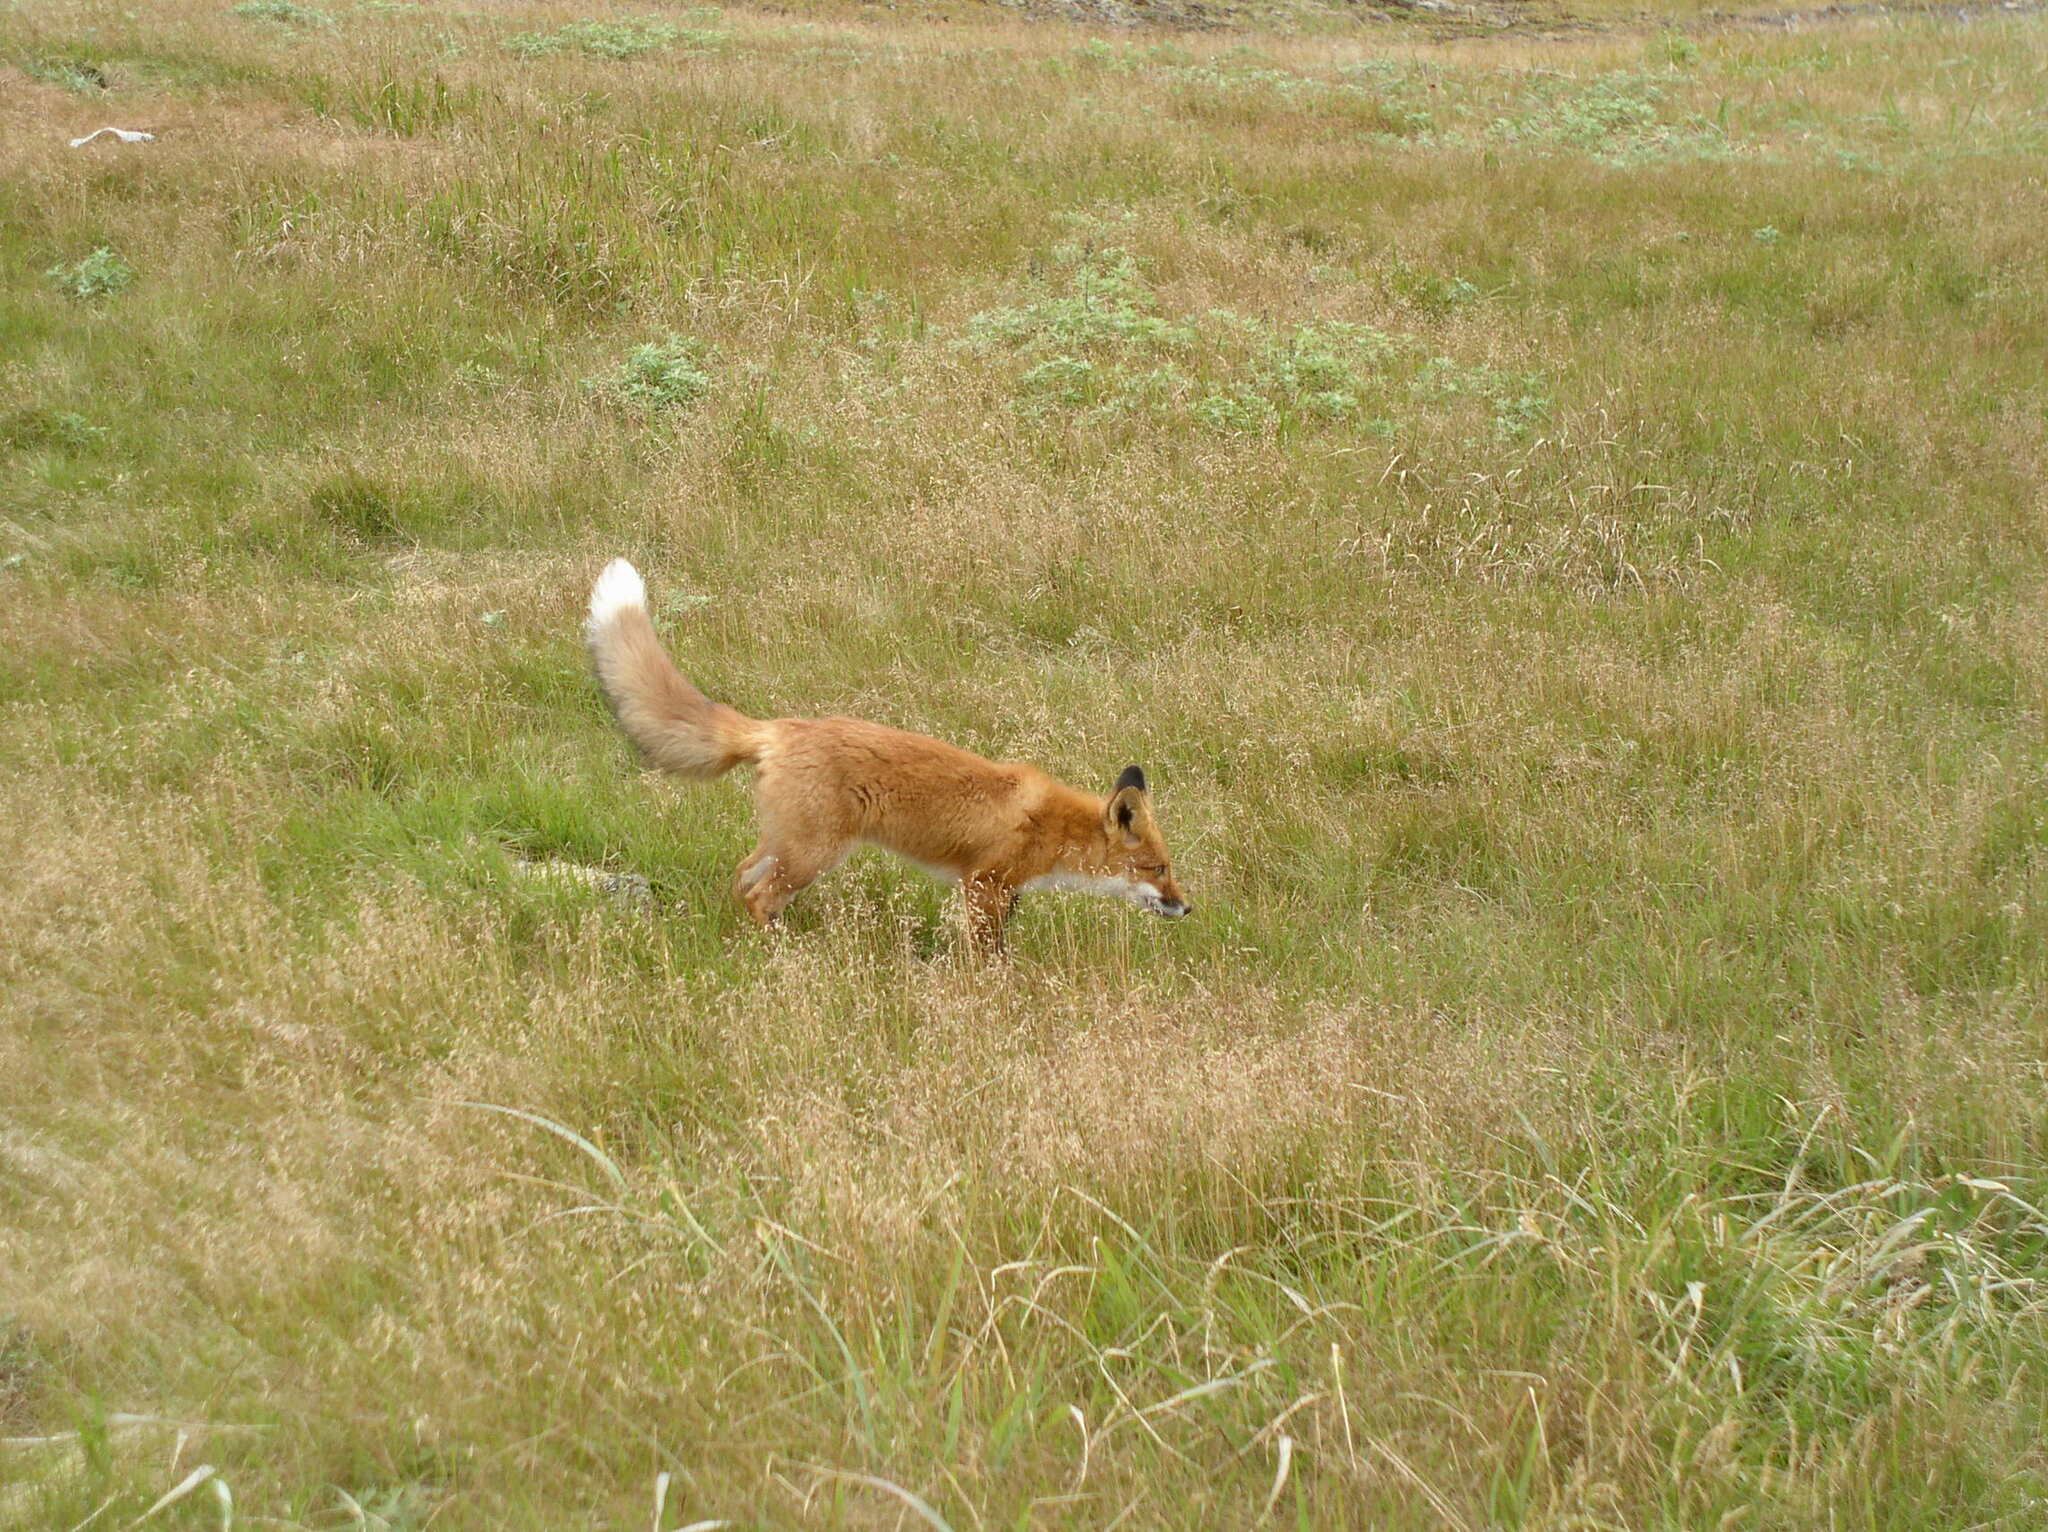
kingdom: Animalia
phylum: Chordata
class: Mammalia
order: Carnivora
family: Canidae
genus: Vulpes
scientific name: Vulpes vulpes
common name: Red fox
